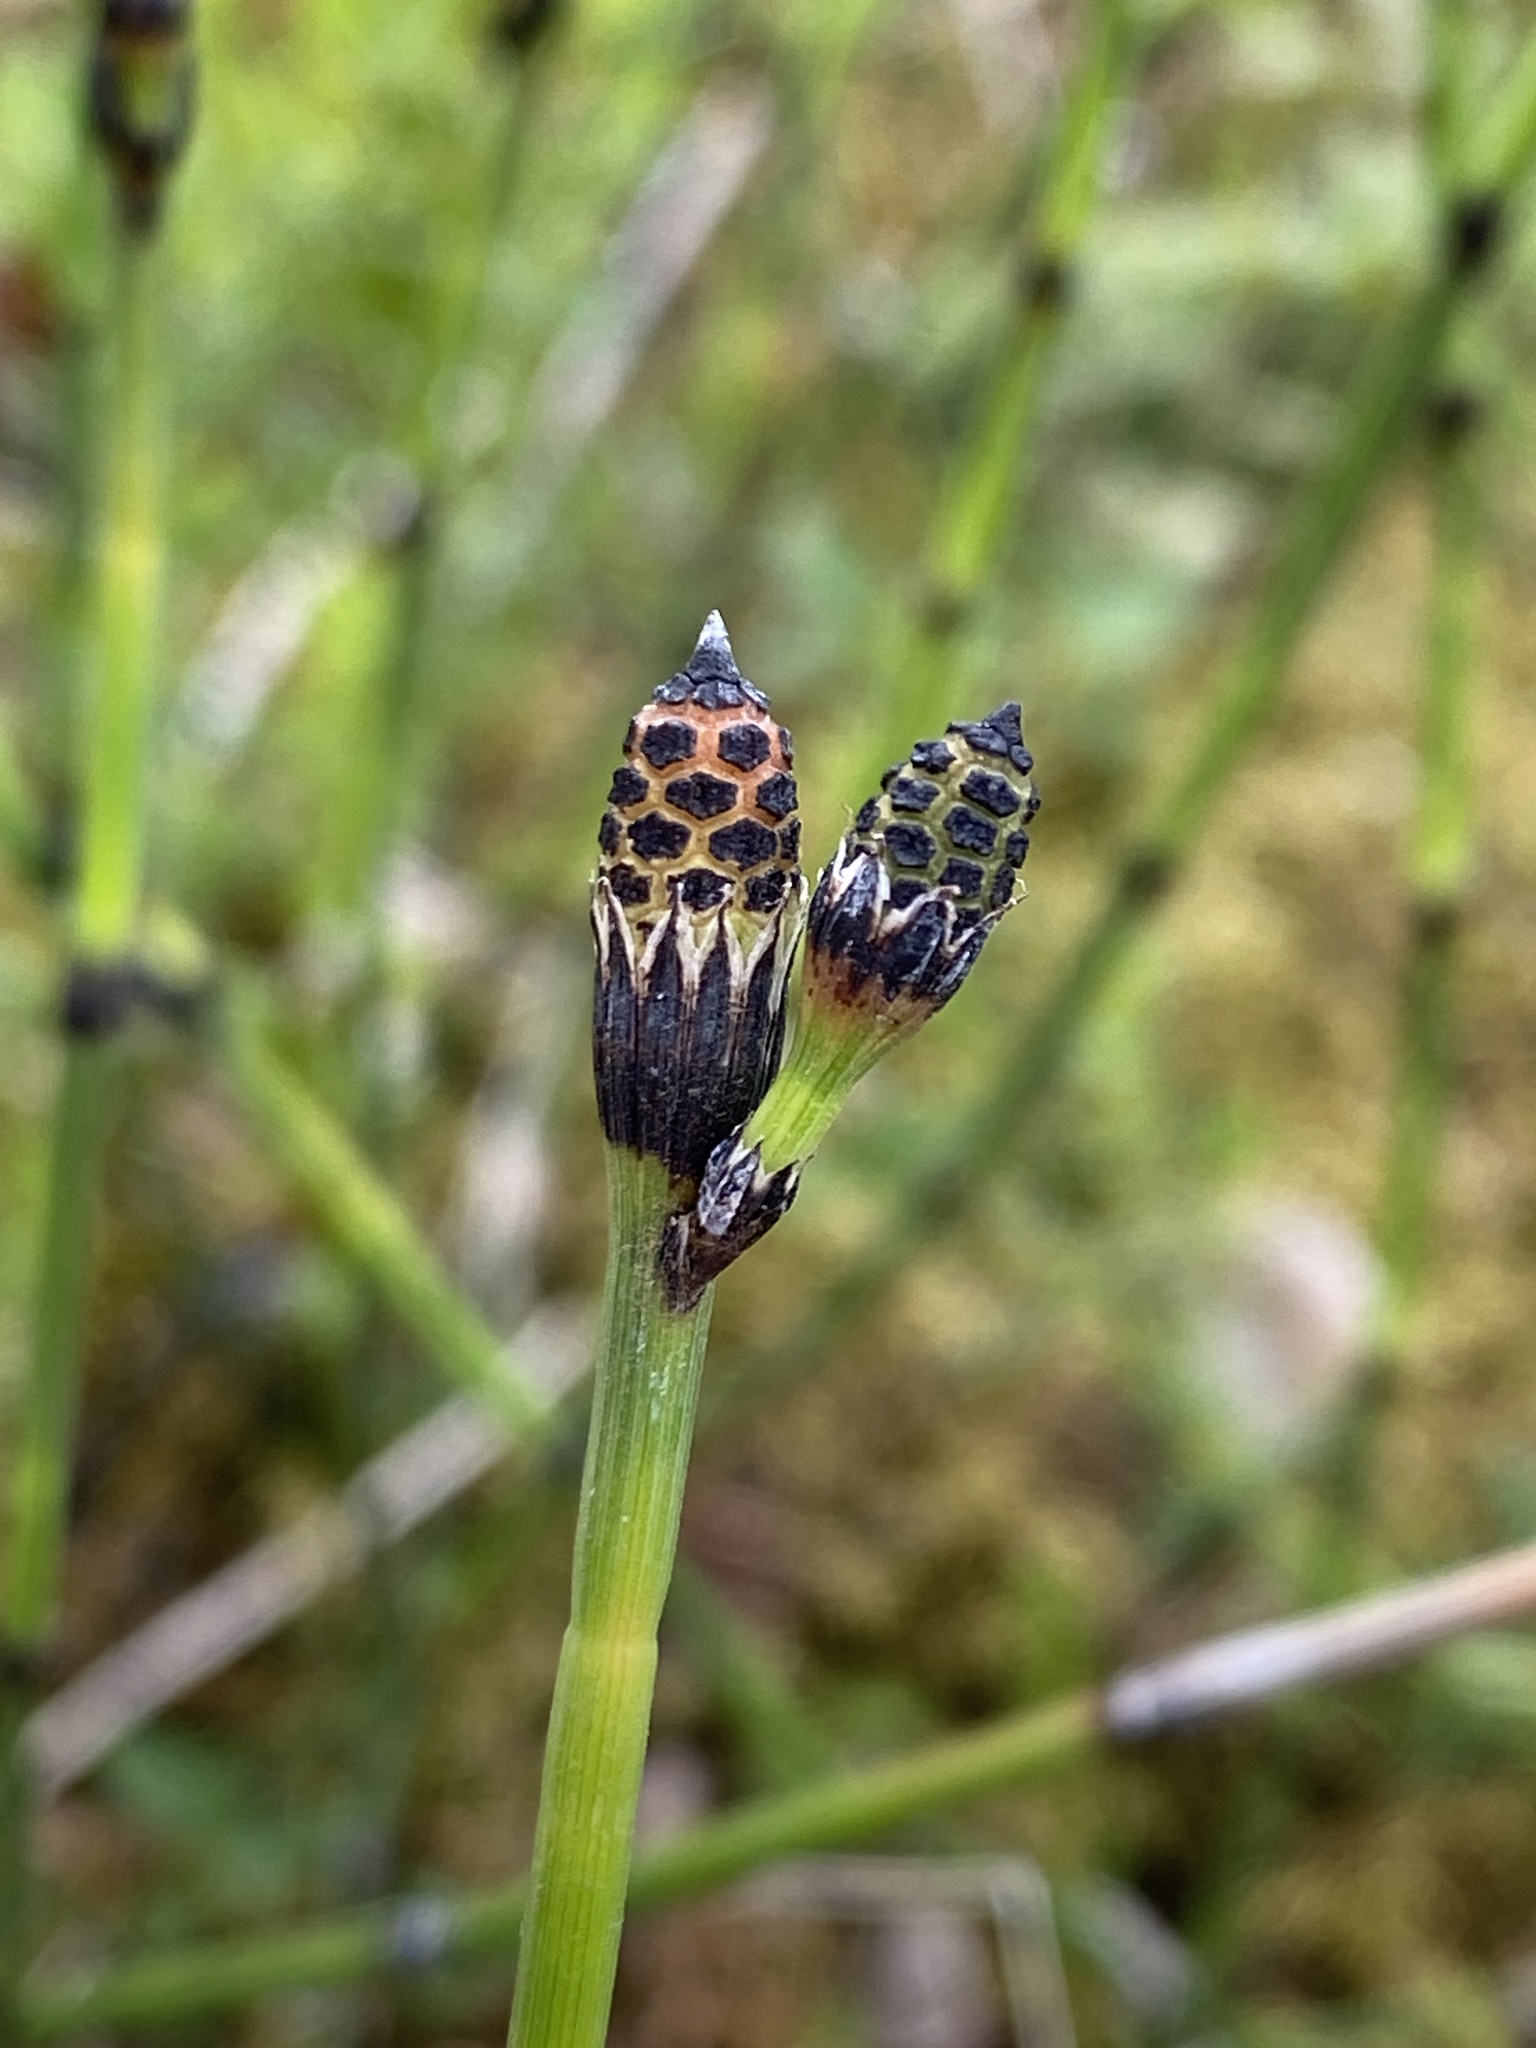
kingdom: Plantae
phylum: Tracheophyta
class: Polypodiopsida
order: Equisetales
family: Equisetaceae
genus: Equisetum
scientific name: Equisetum variegatum
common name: Variegated horsetail
